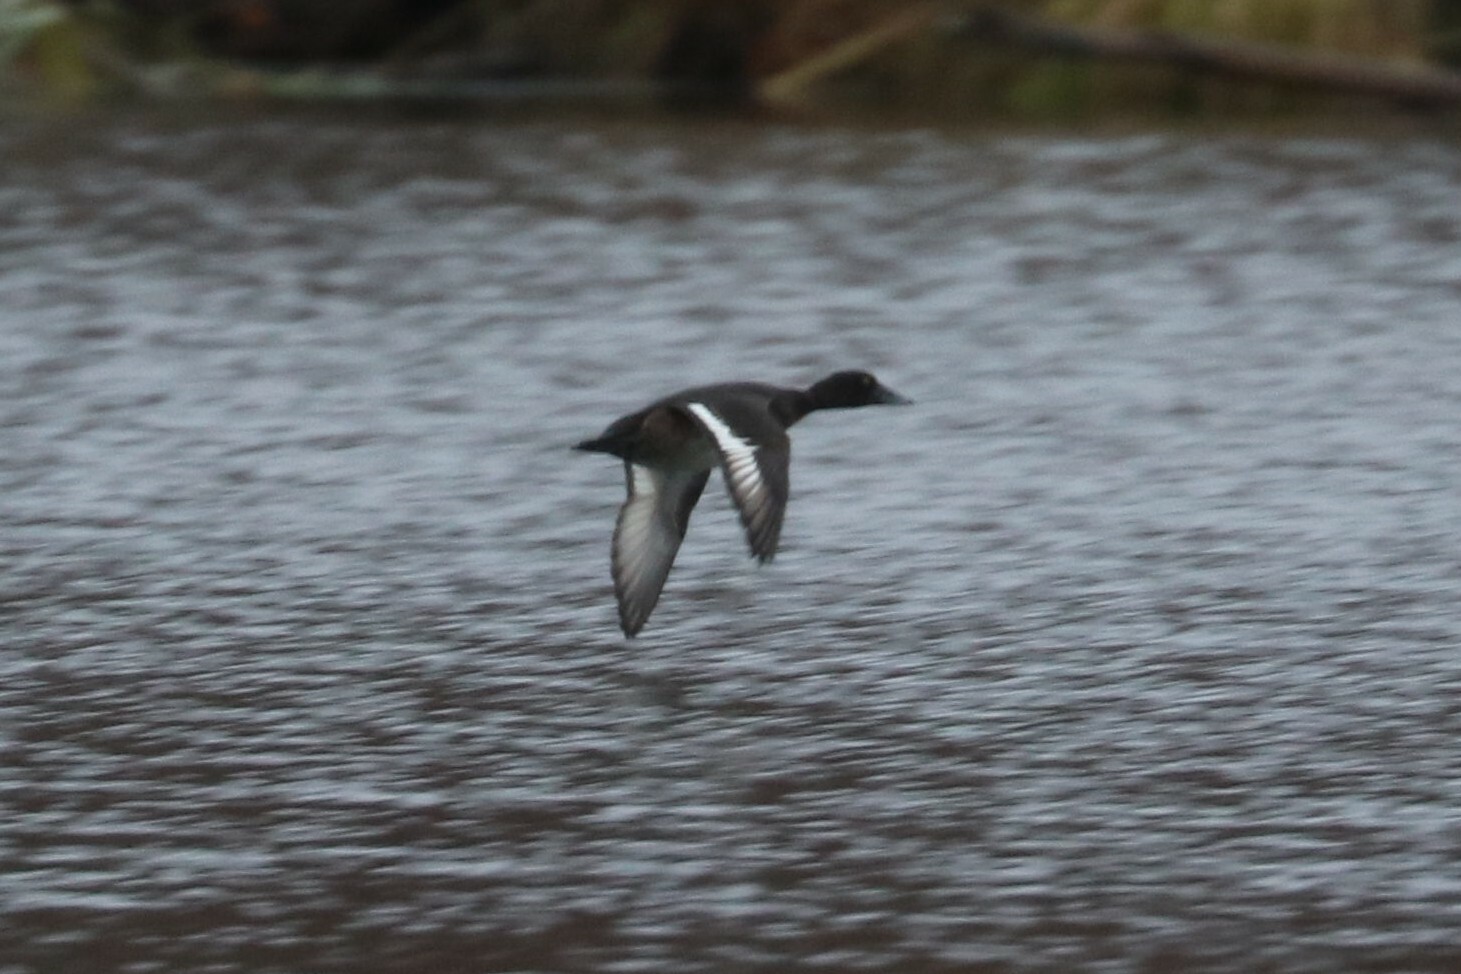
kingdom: Animalia
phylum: Chordata
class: Aves
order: Anseriformes
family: Anatidae
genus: Aythya
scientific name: Aythya fuligula
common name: Tufted duck
